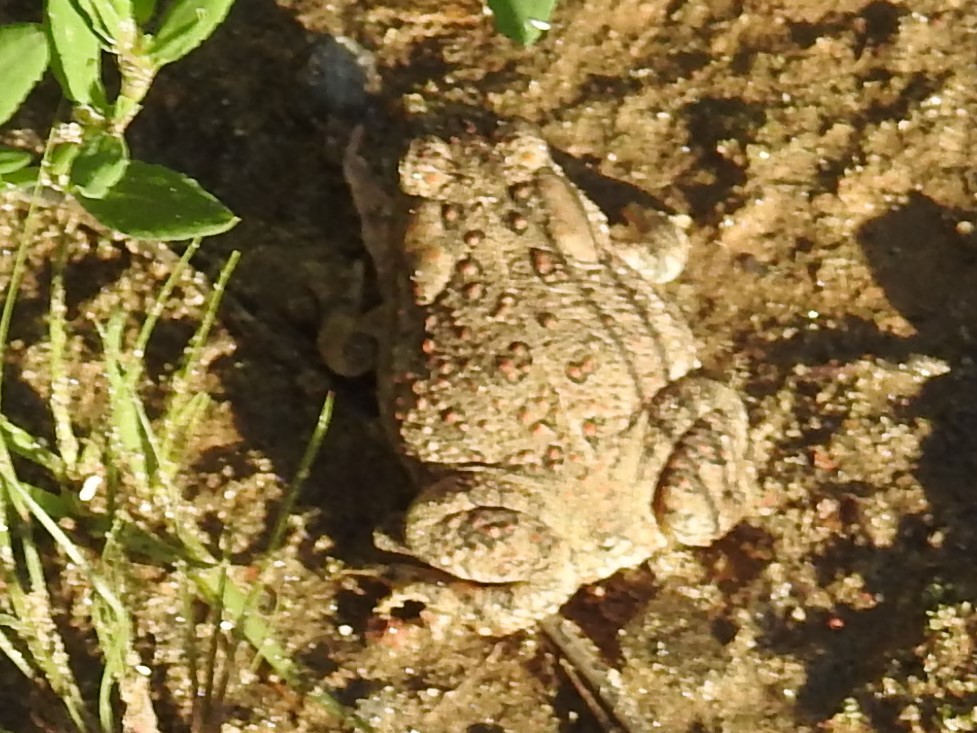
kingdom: Animalia
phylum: Chordata
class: Amphibia
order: Anura
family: Bufonidae
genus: Anaxyrus
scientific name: Anaxyrus woodhousii
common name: Woodhouse's toad
